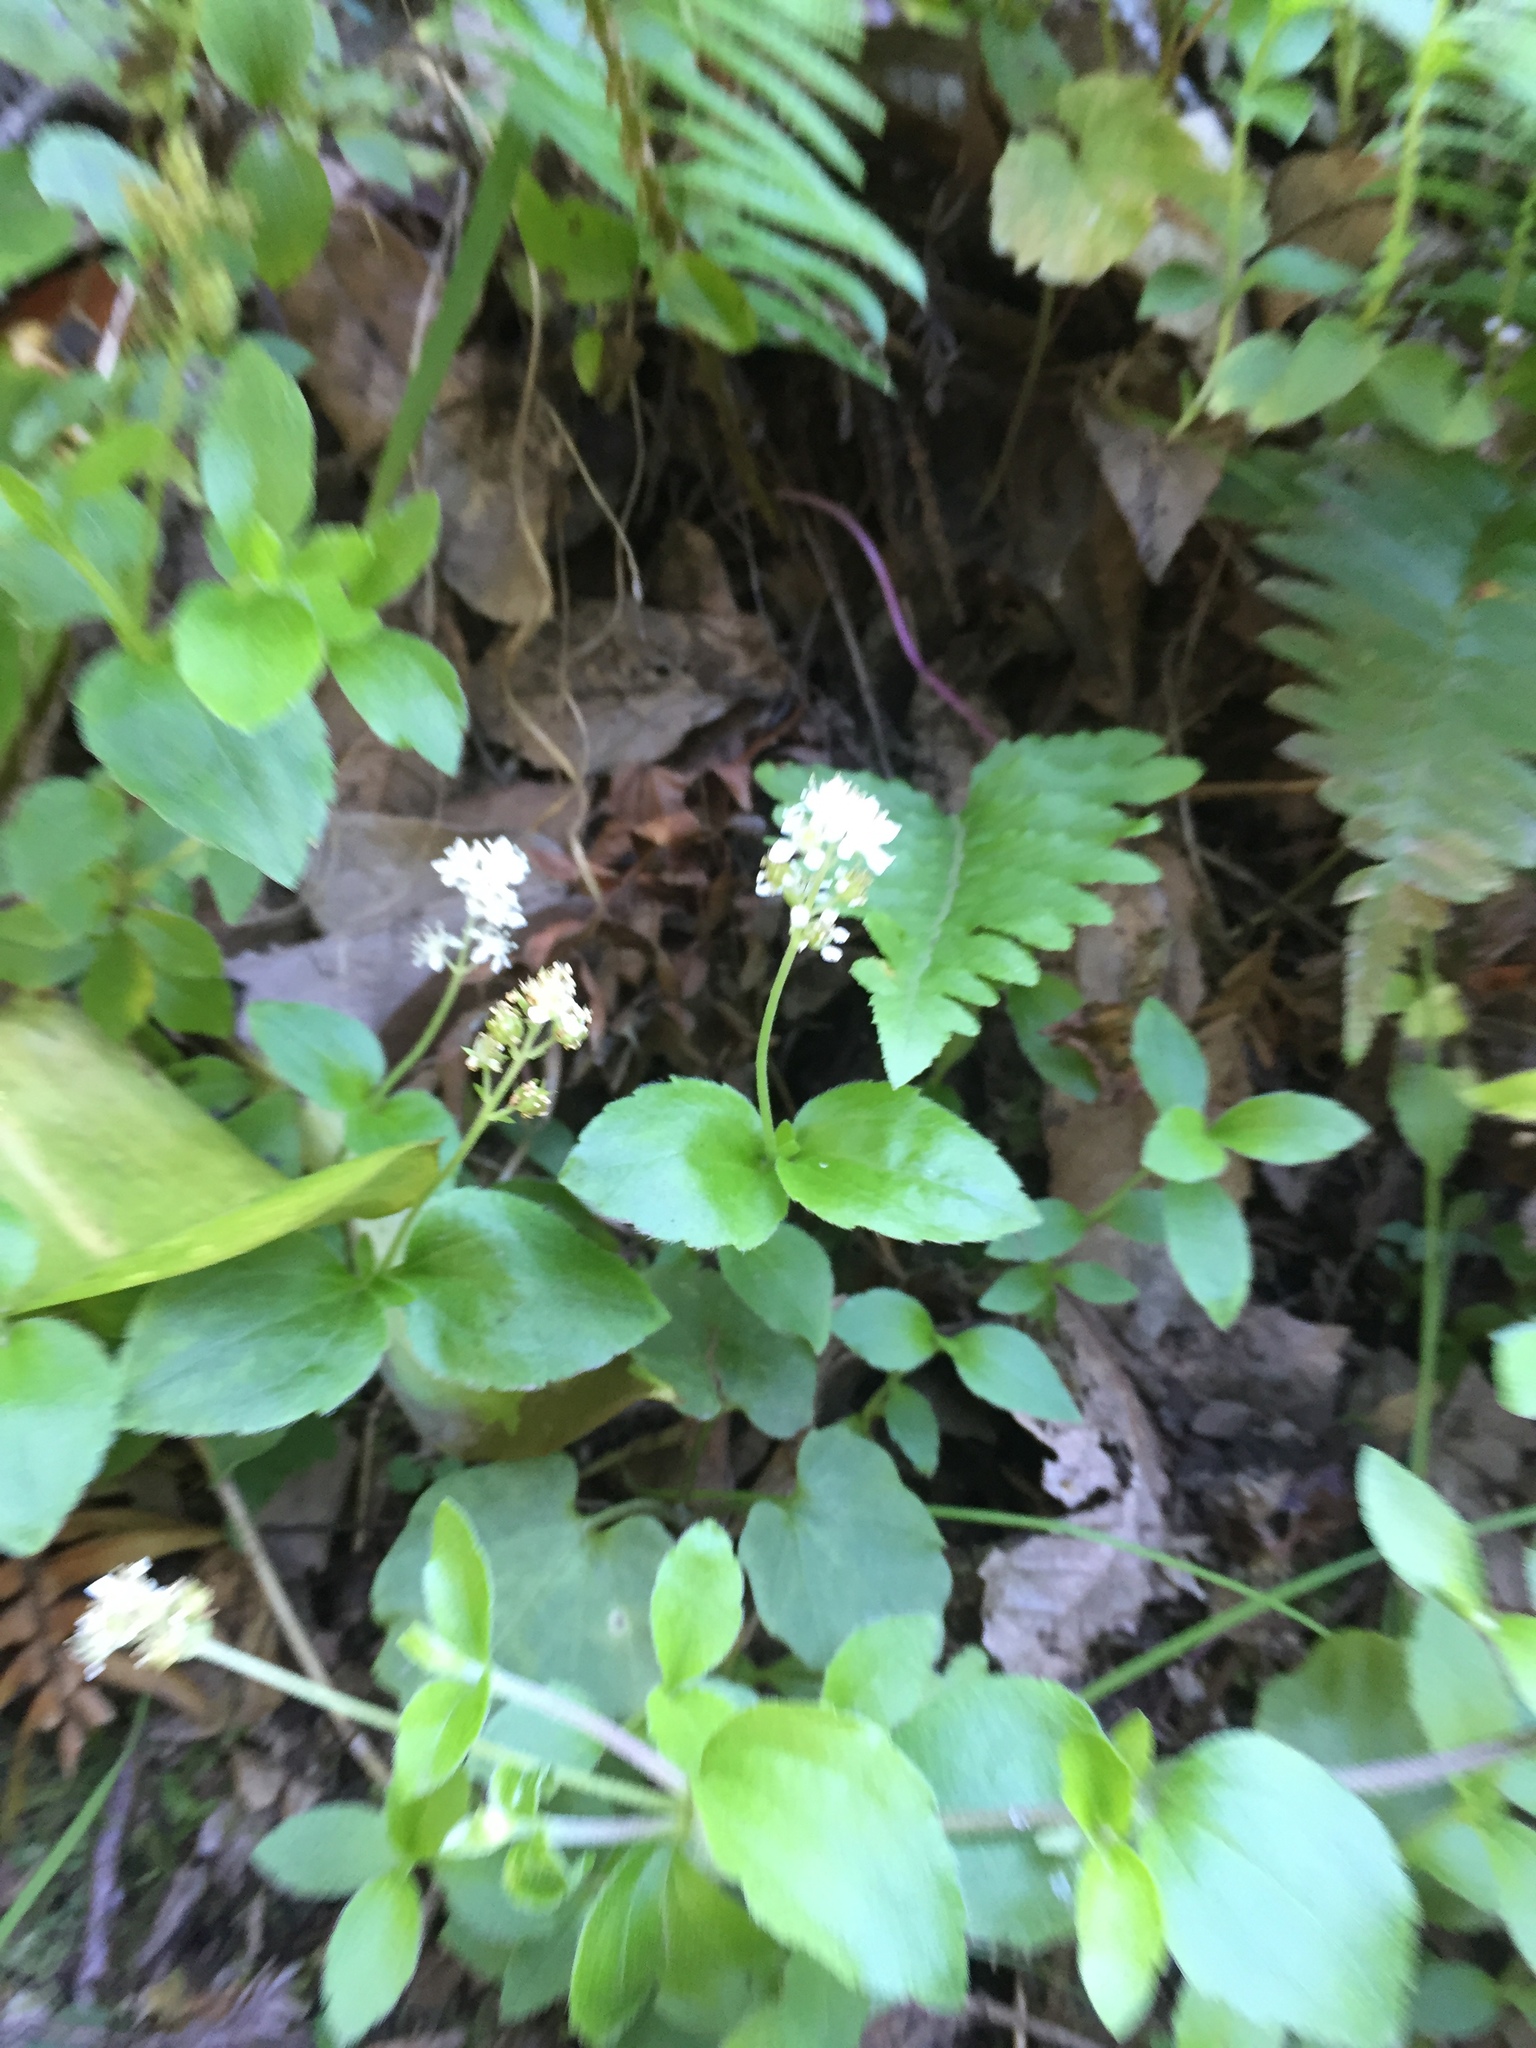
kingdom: Plantae
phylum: Tracheophyta
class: Magnoliopsida
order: Cornales
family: Hydrangeaceae
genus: Whipplea
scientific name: Whipplea modesta
